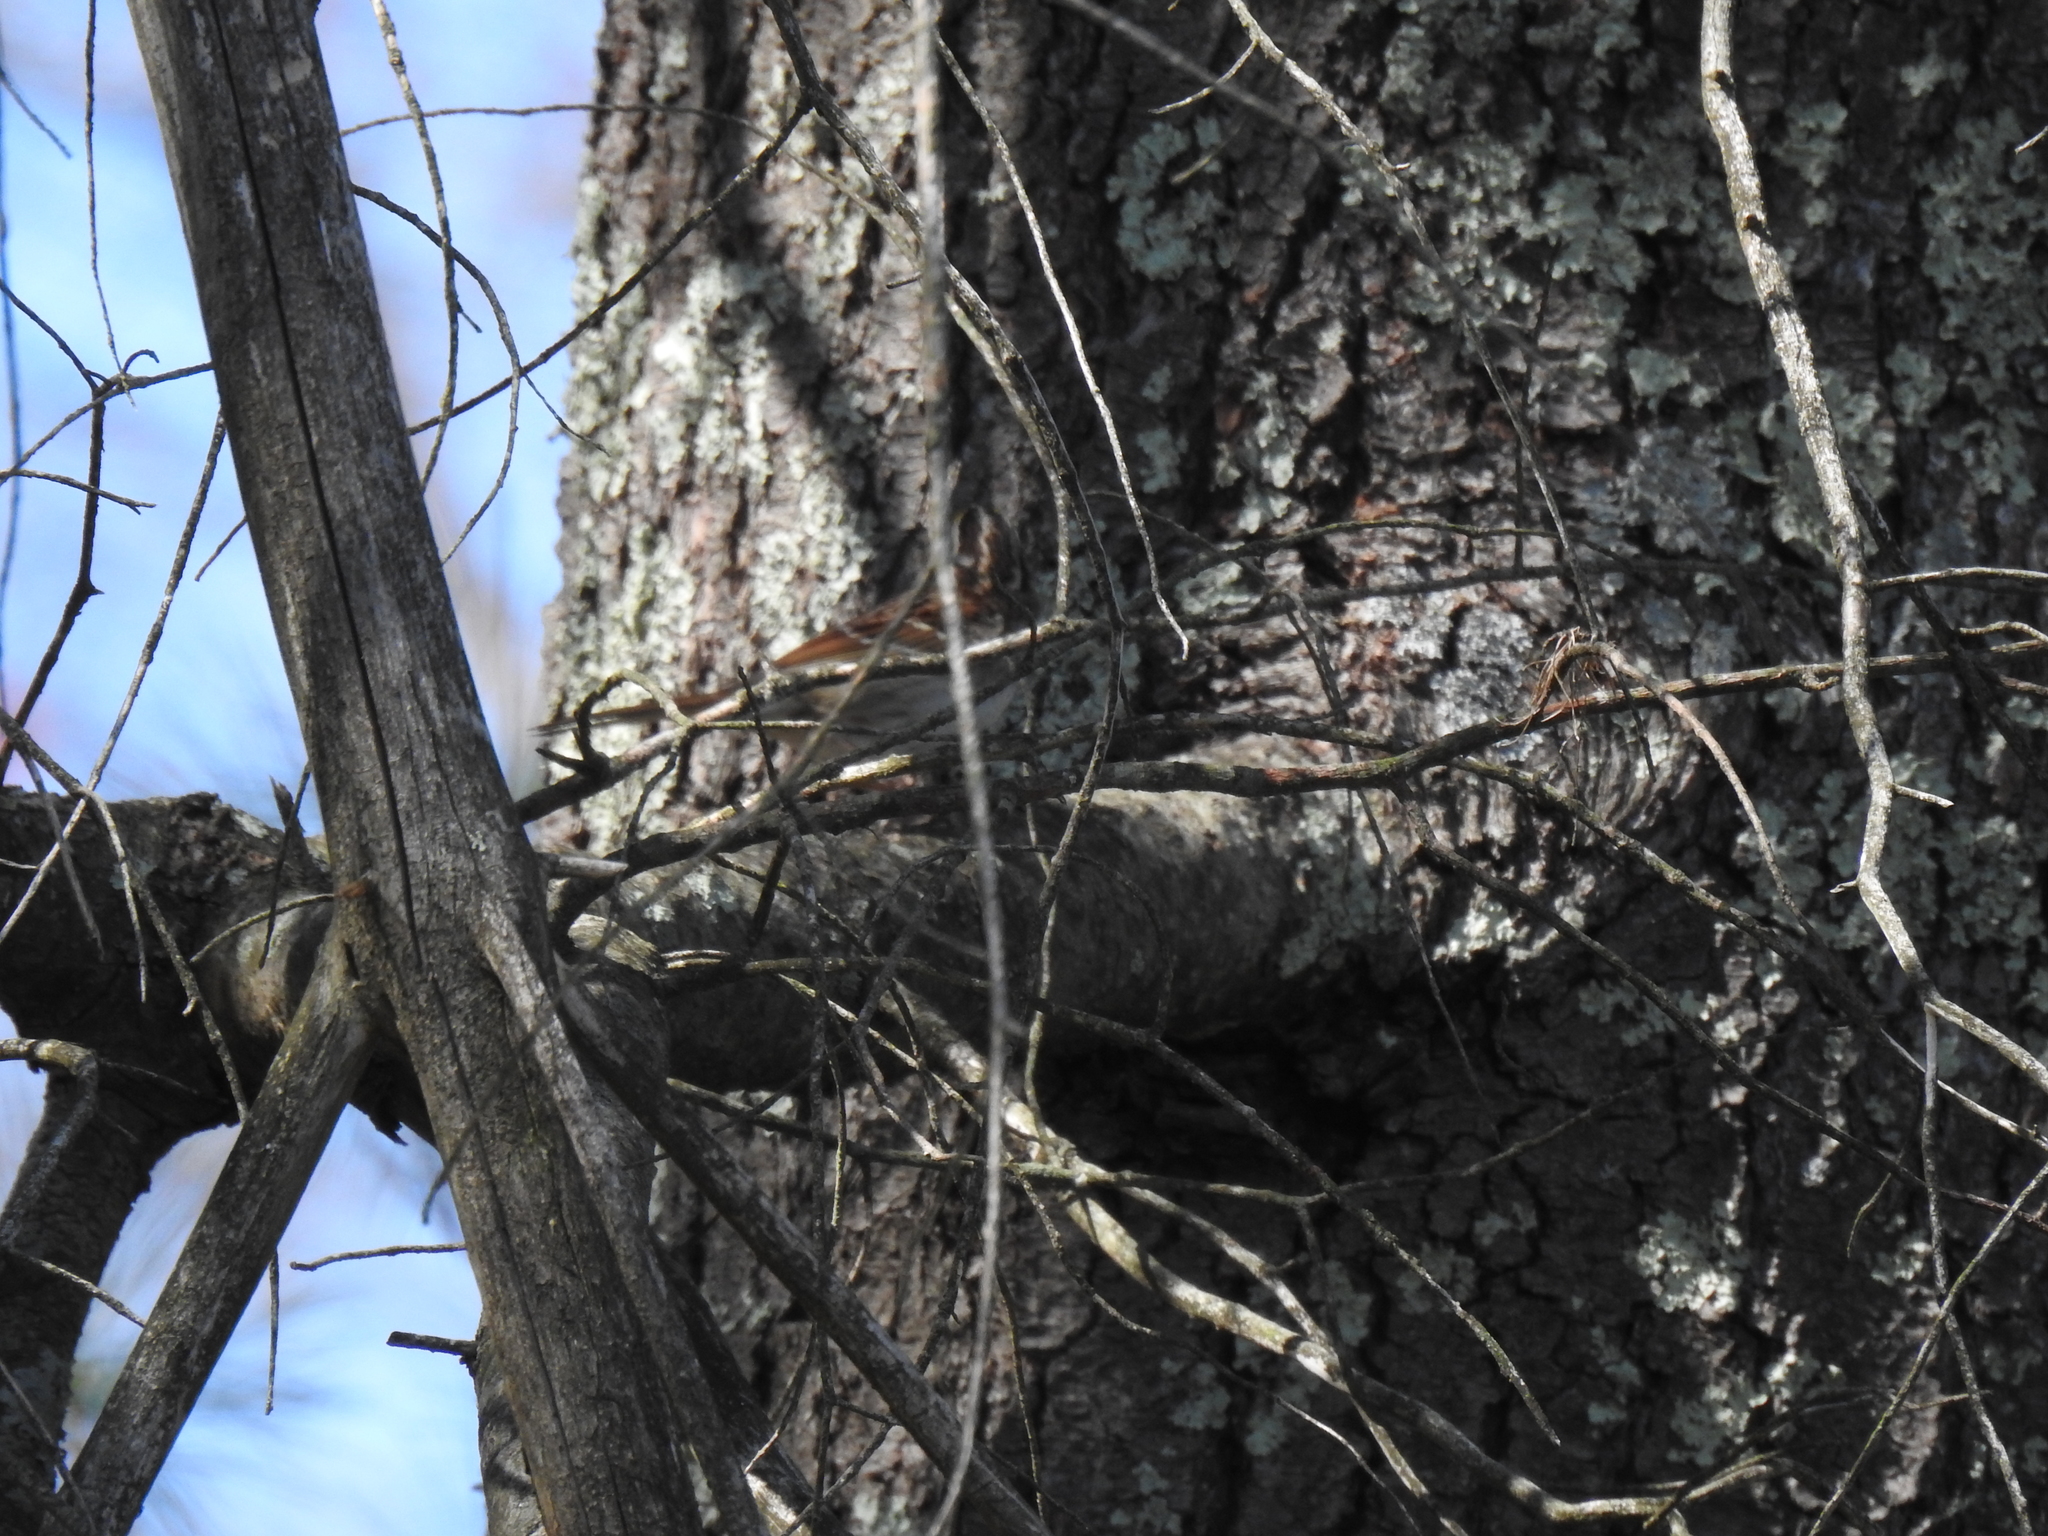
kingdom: Animalia
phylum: Chordata
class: Aves
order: Passeriformes
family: Passerellidae
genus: Zonotrichia
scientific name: Zonotrichia albicollis
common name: White-throated sparrow
